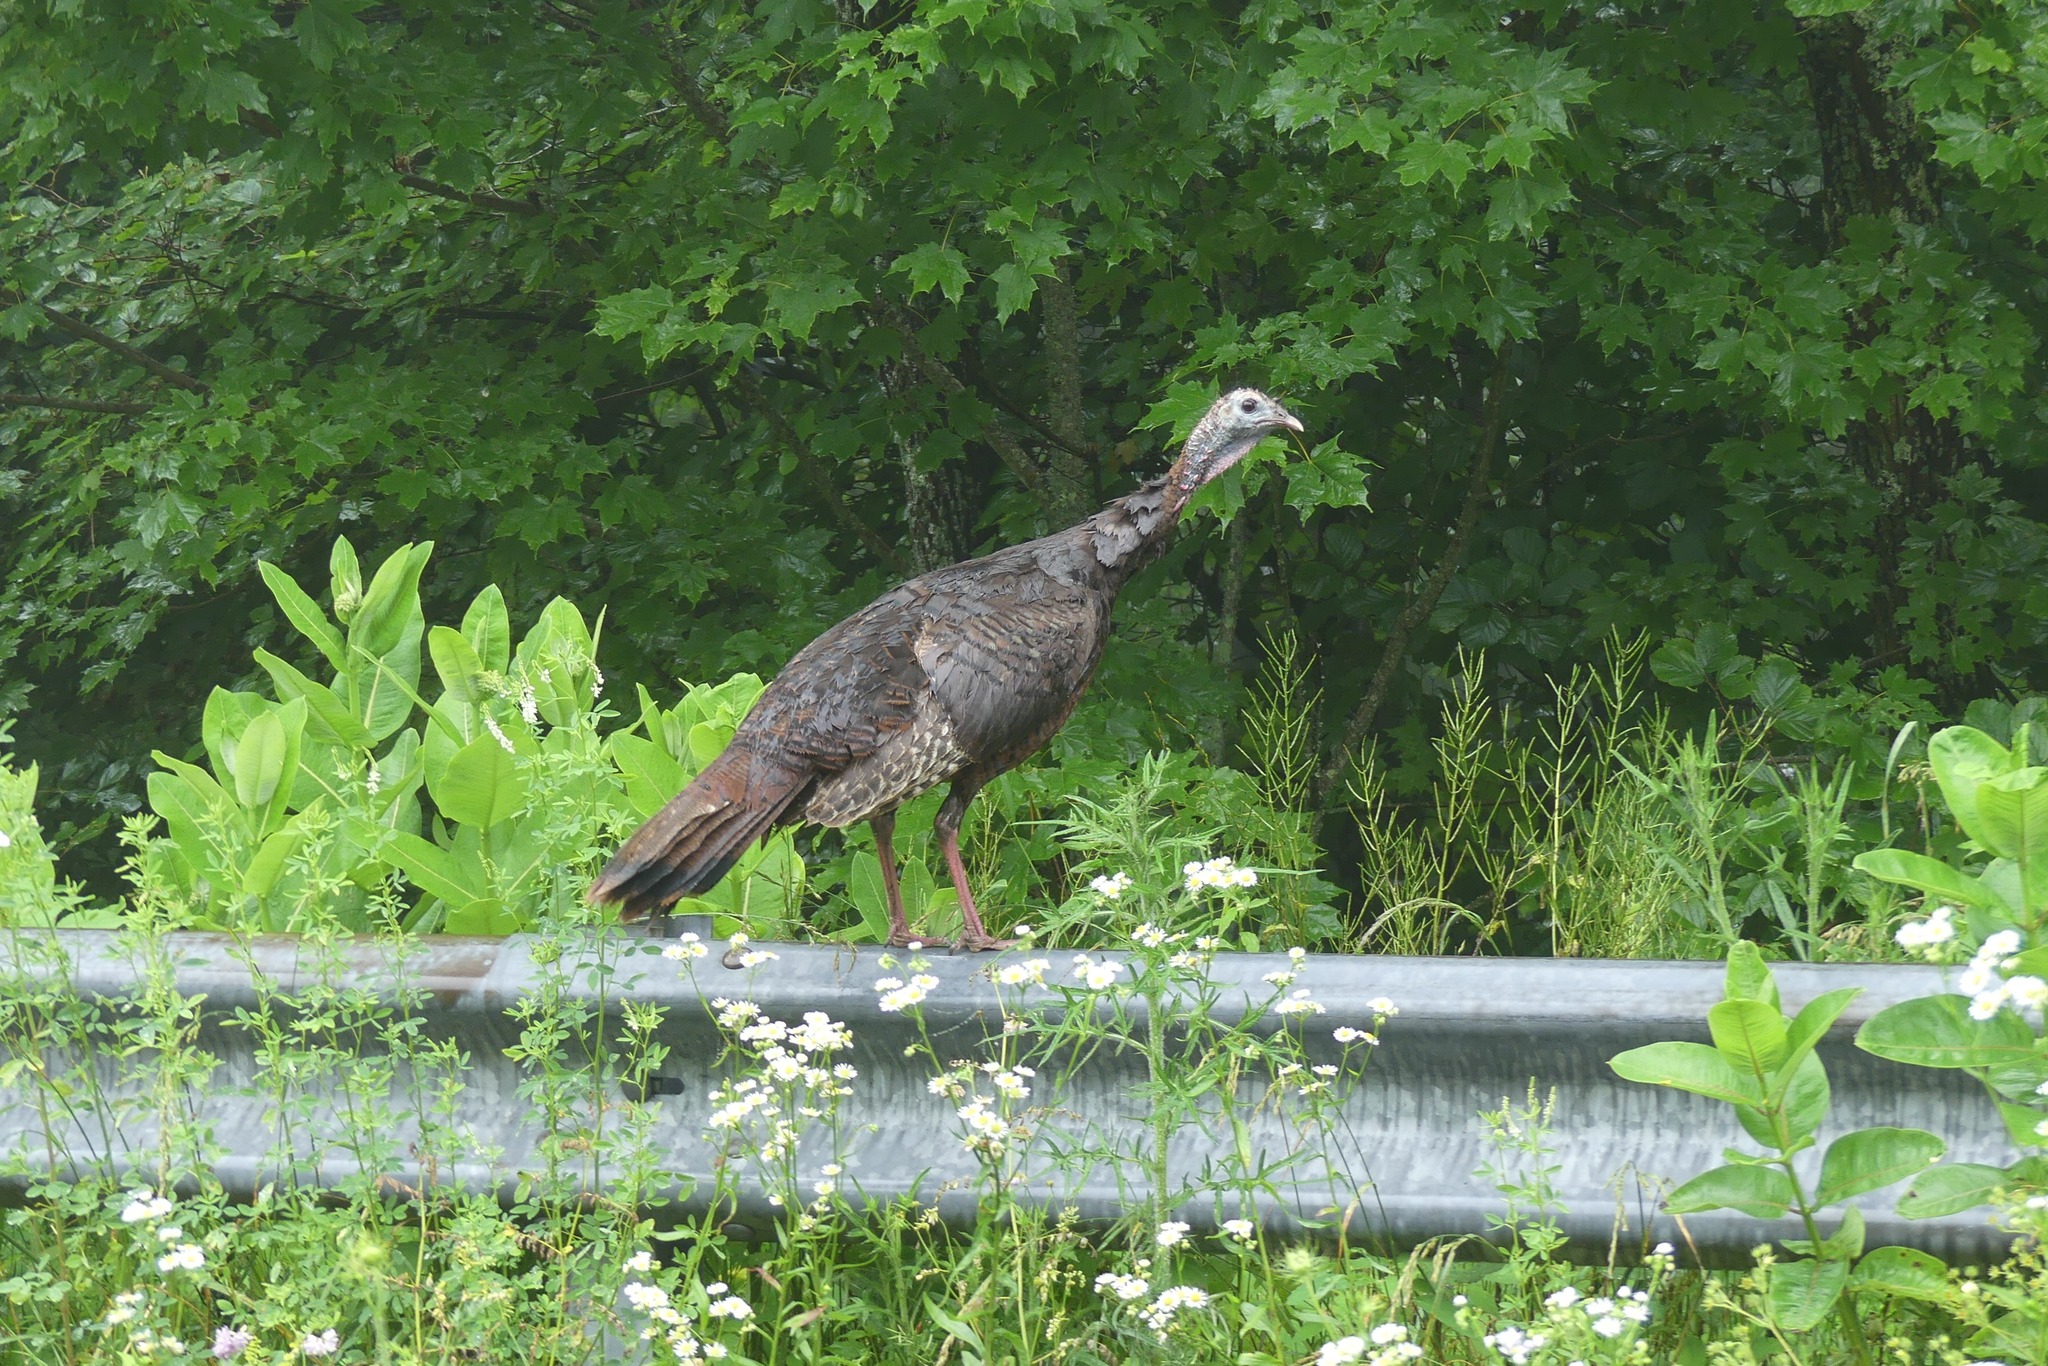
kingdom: Animalia
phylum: Chordata
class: Aves
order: Galliformes
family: Phasianidae
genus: Meleagris
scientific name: Meleagris gallopavo
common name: Wild turkey
